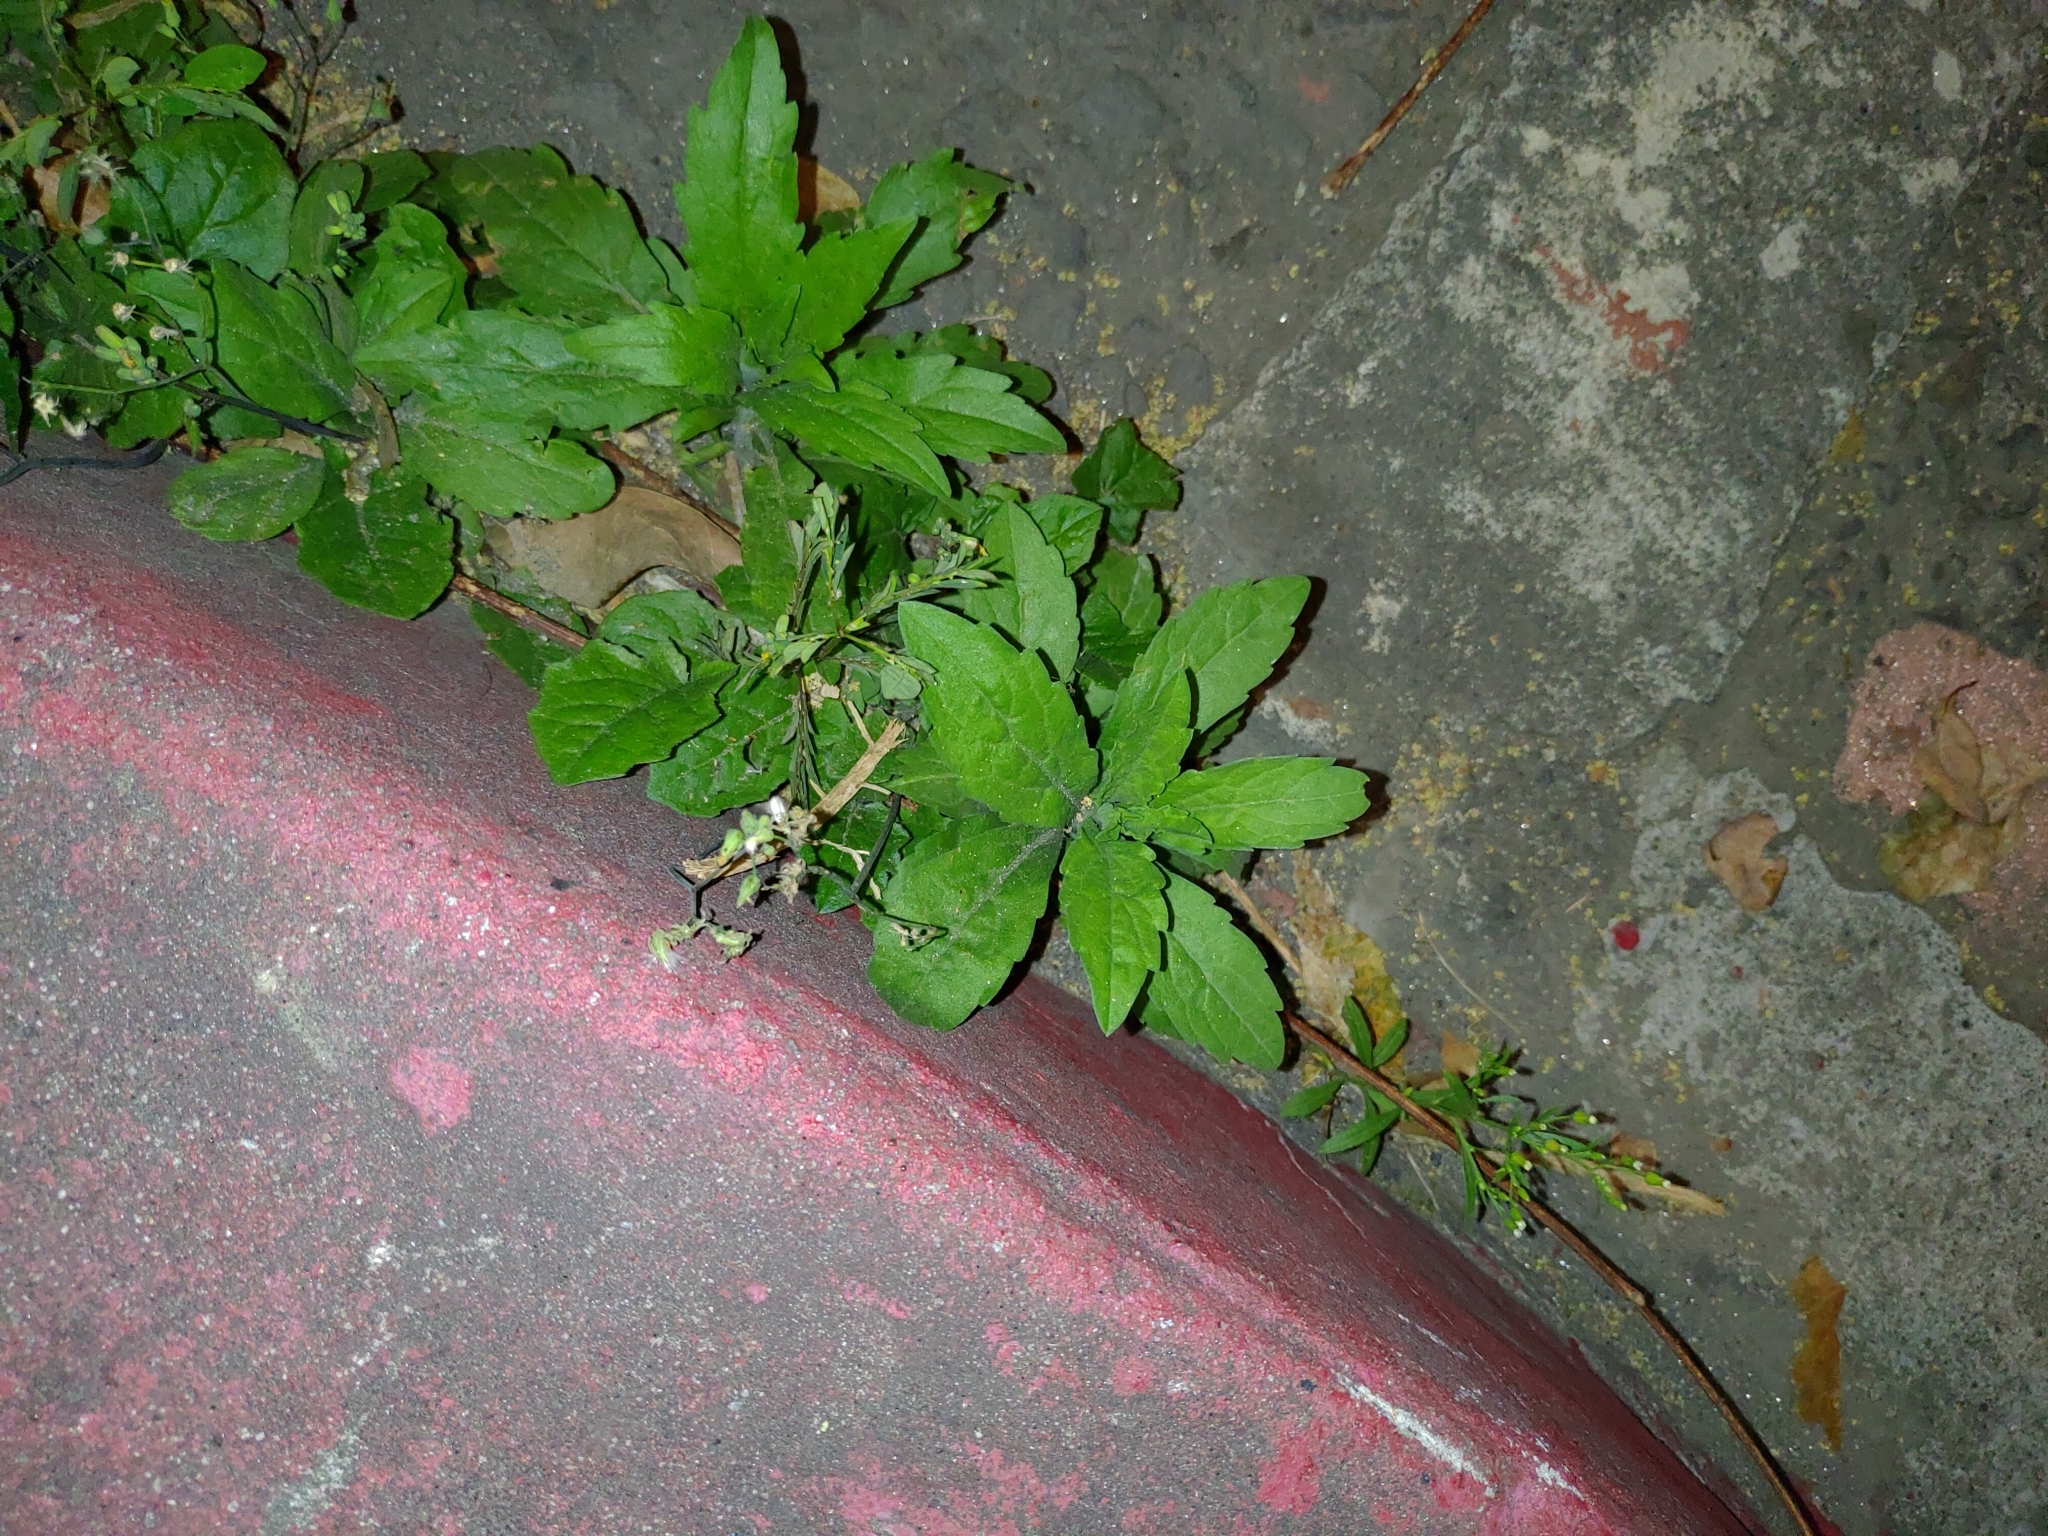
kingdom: Plantae
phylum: Tracheophyta
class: Magnoliopsida
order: Asterales
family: Asteraceae
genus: Youngia
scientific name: Youngia japonica
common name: Oriental false hawksbeard
